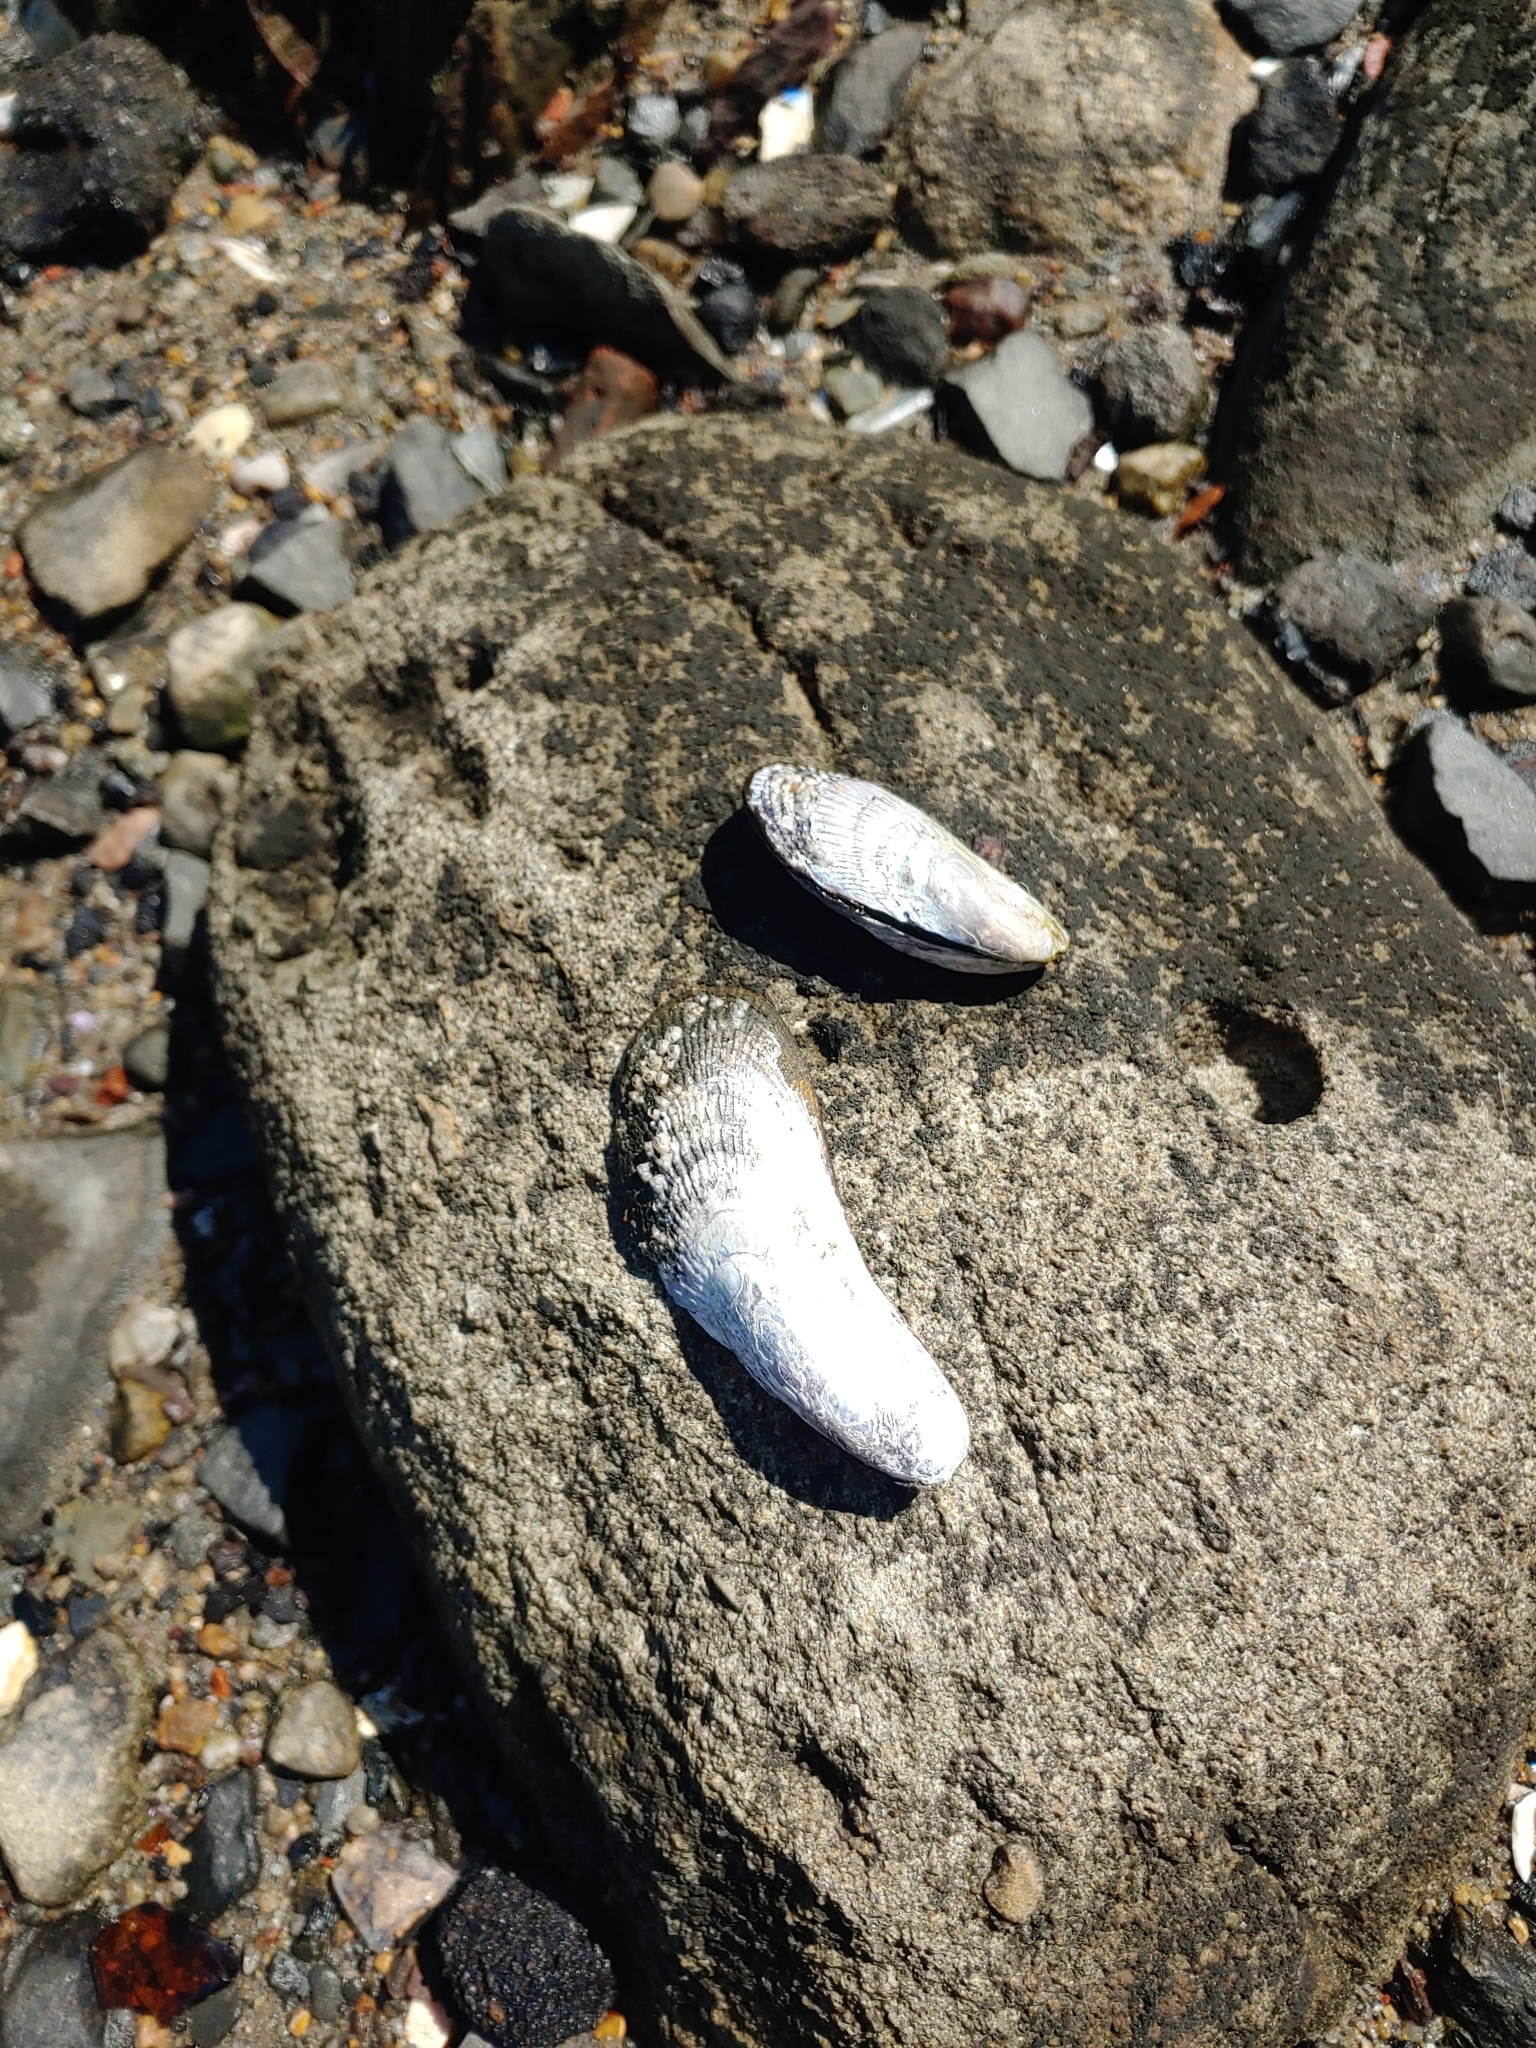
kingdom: Animalia
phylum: Mollusca
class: Bivalvia
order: Mytilida
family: Mytilidae
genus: Geukensia
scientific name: Geukensia demissa
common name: Ribbed mussel
